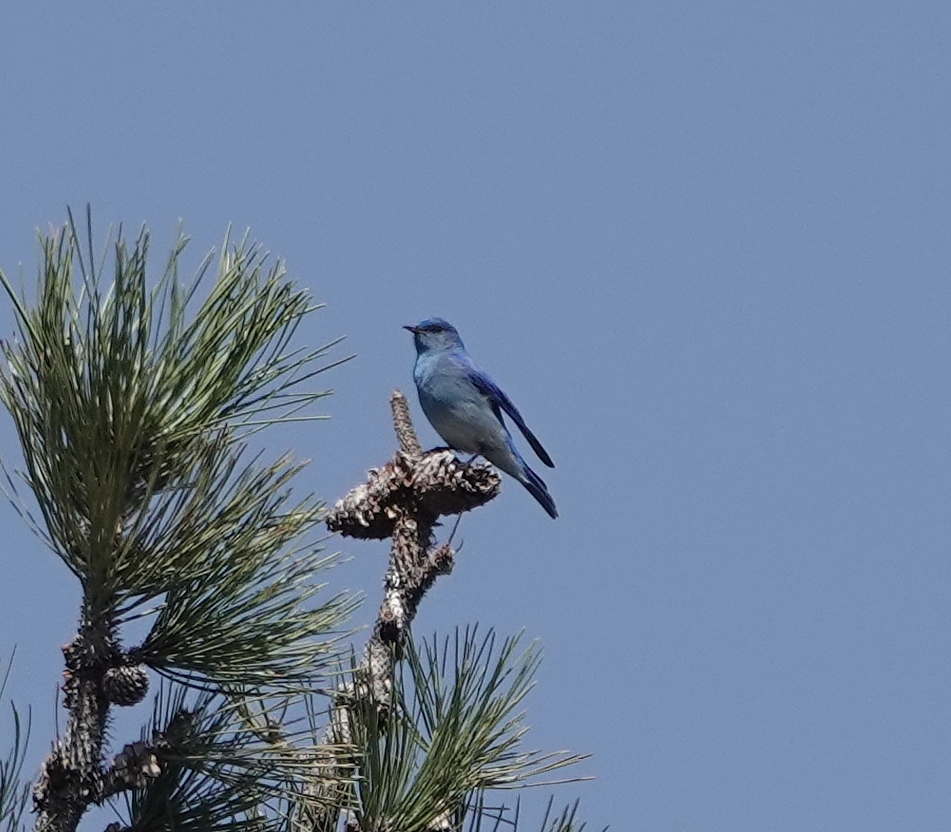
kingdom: Animalia
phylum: Chordata
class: Aves
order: Passeriformes
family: Turdidae
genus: Sialia
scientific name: Sialia currucoides
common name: Mountain bluebird
